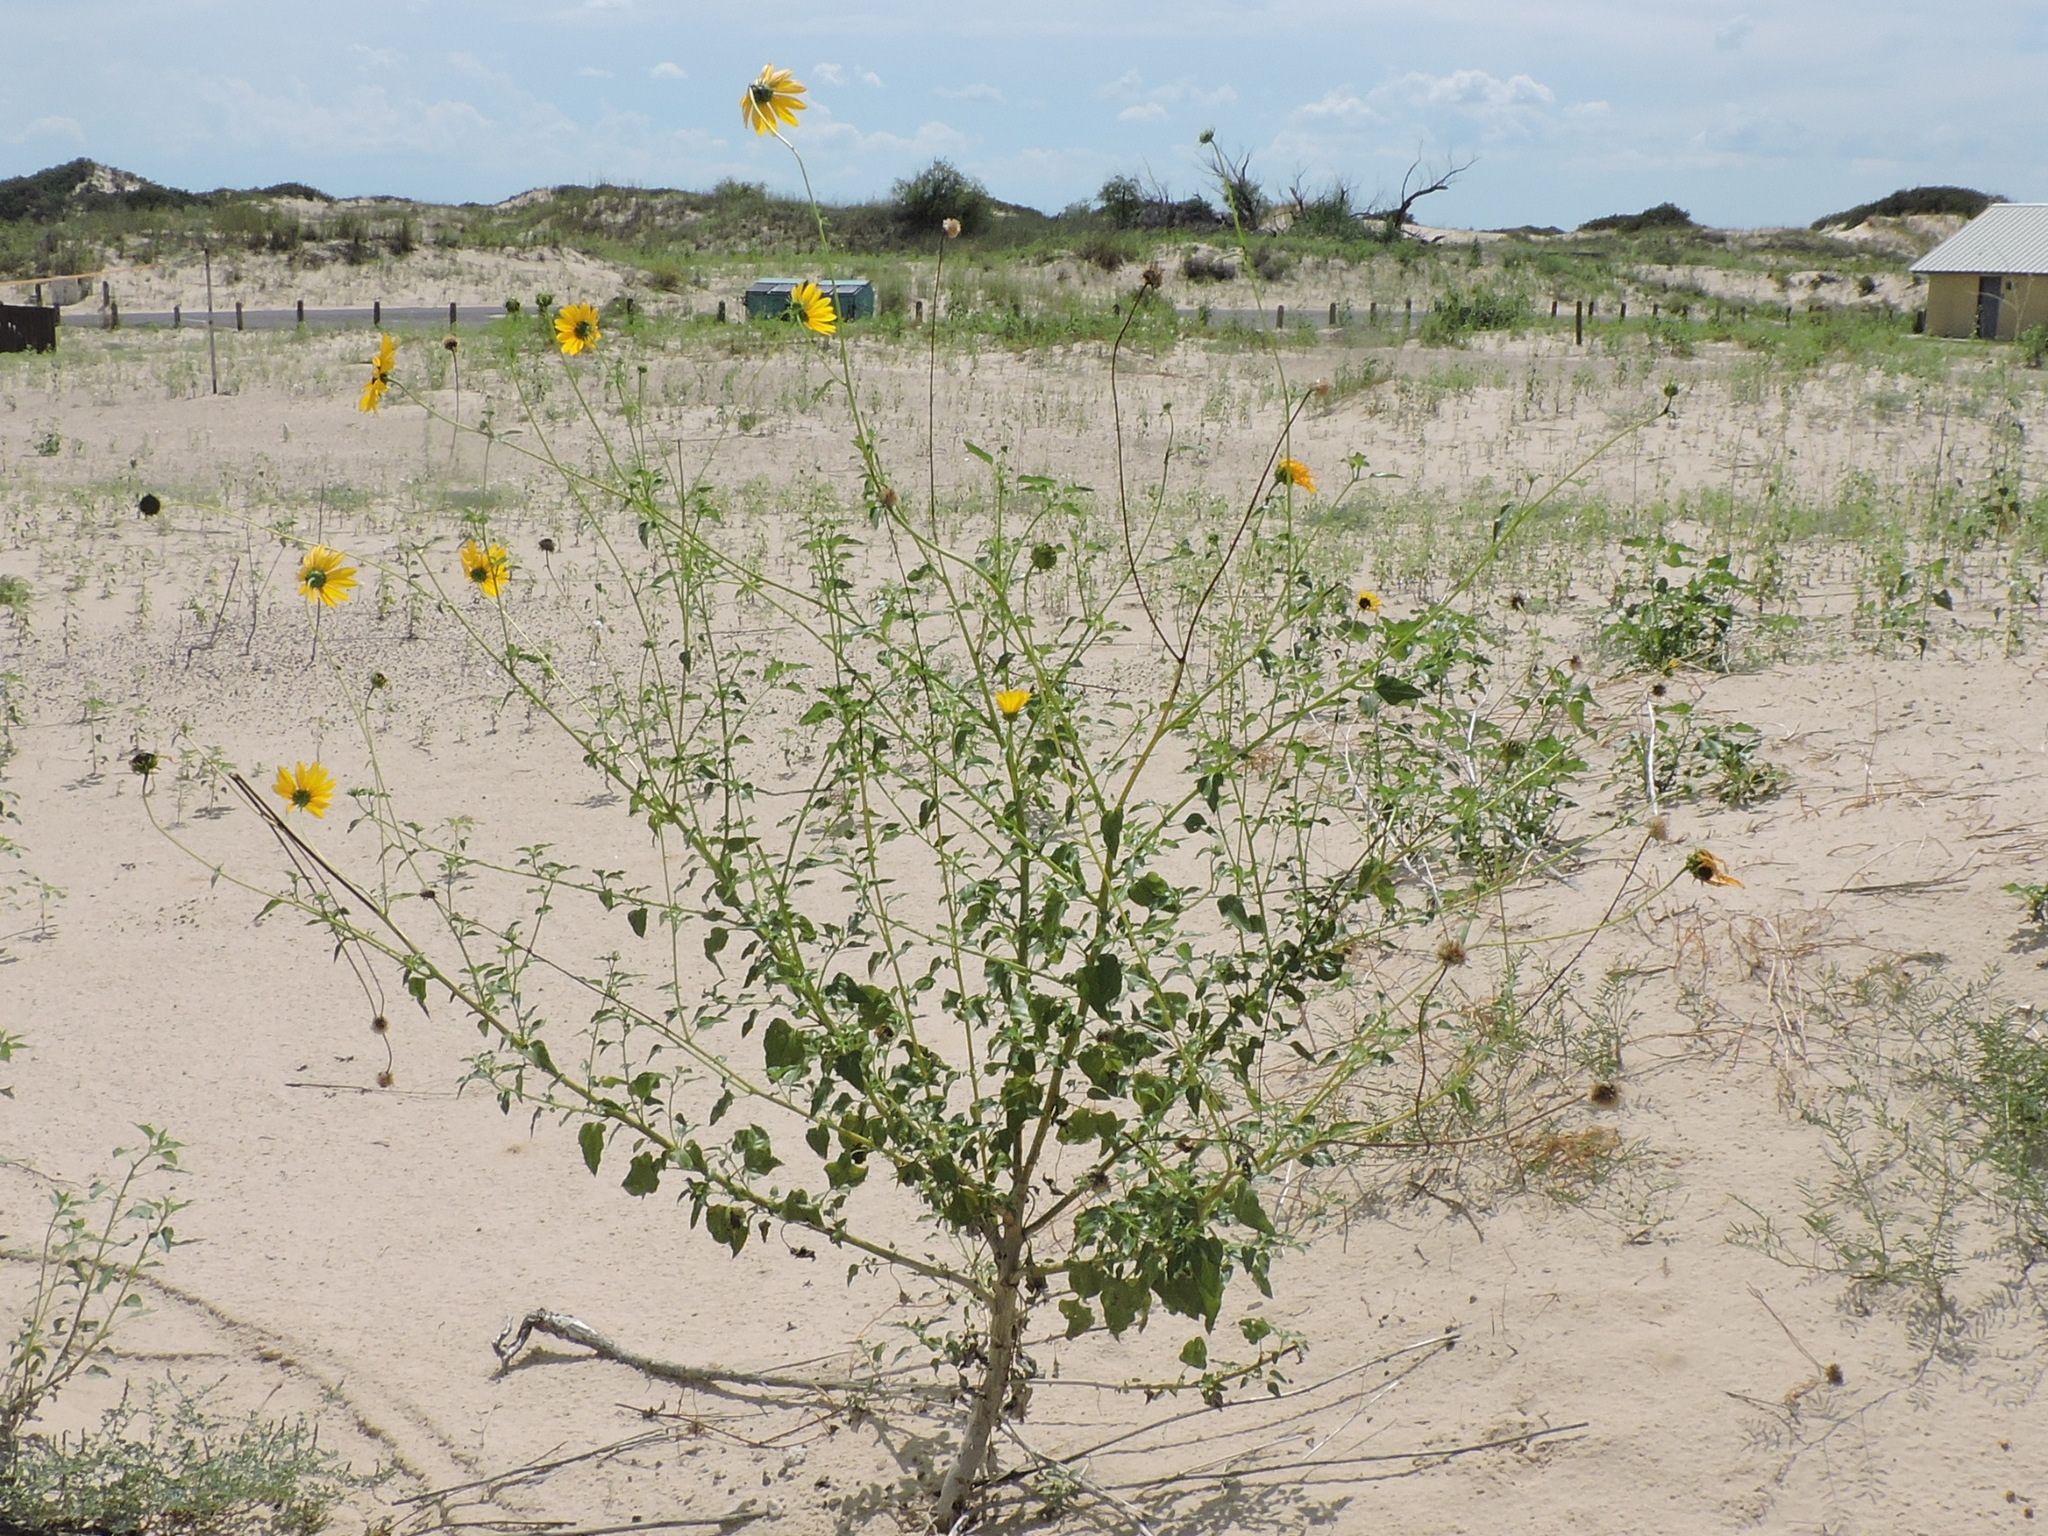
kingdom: Plantae
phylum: Tracheophyta
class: Magnoliopsida
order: Asterales
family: Asteraceae
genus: Helianthus
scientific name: Helianthus petiolaris
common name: Lesser sunflower
